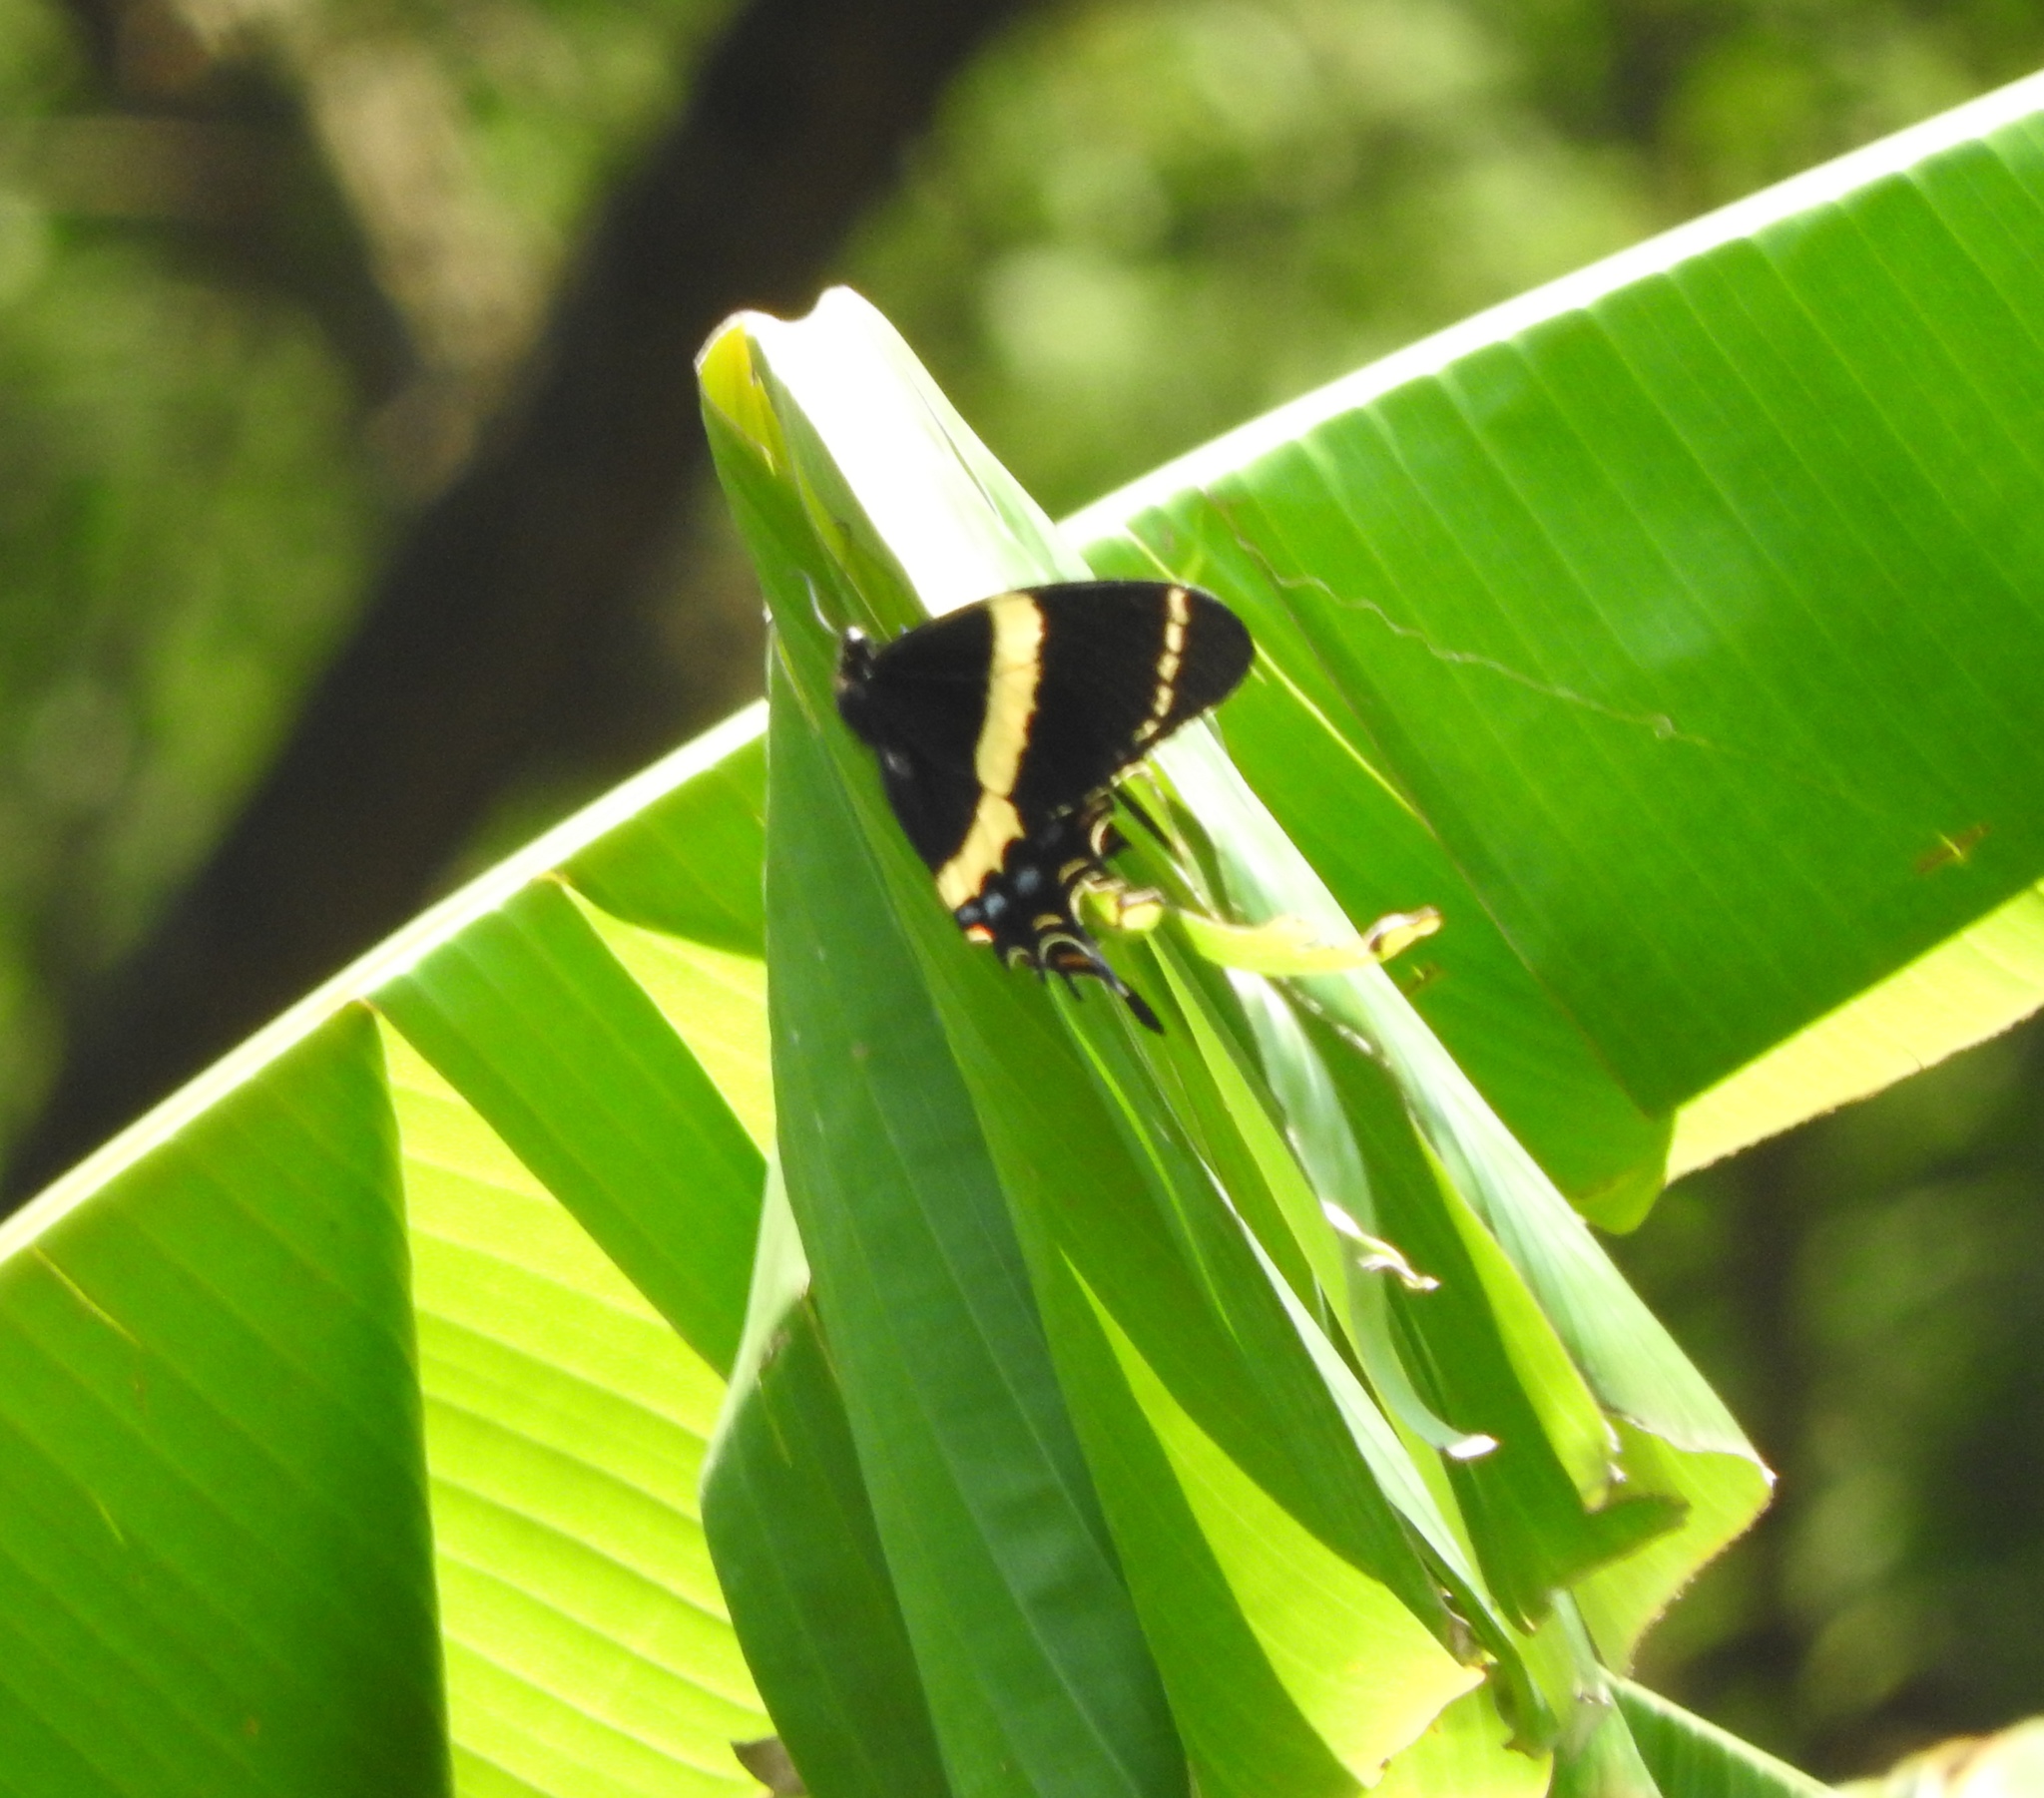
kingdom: Animalia
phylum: Arthropoda
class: Insecta
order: Lepidoptera
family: Papilionidae
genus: Papilio
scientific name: Papilio garamas
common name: Magnificent swallowtail
